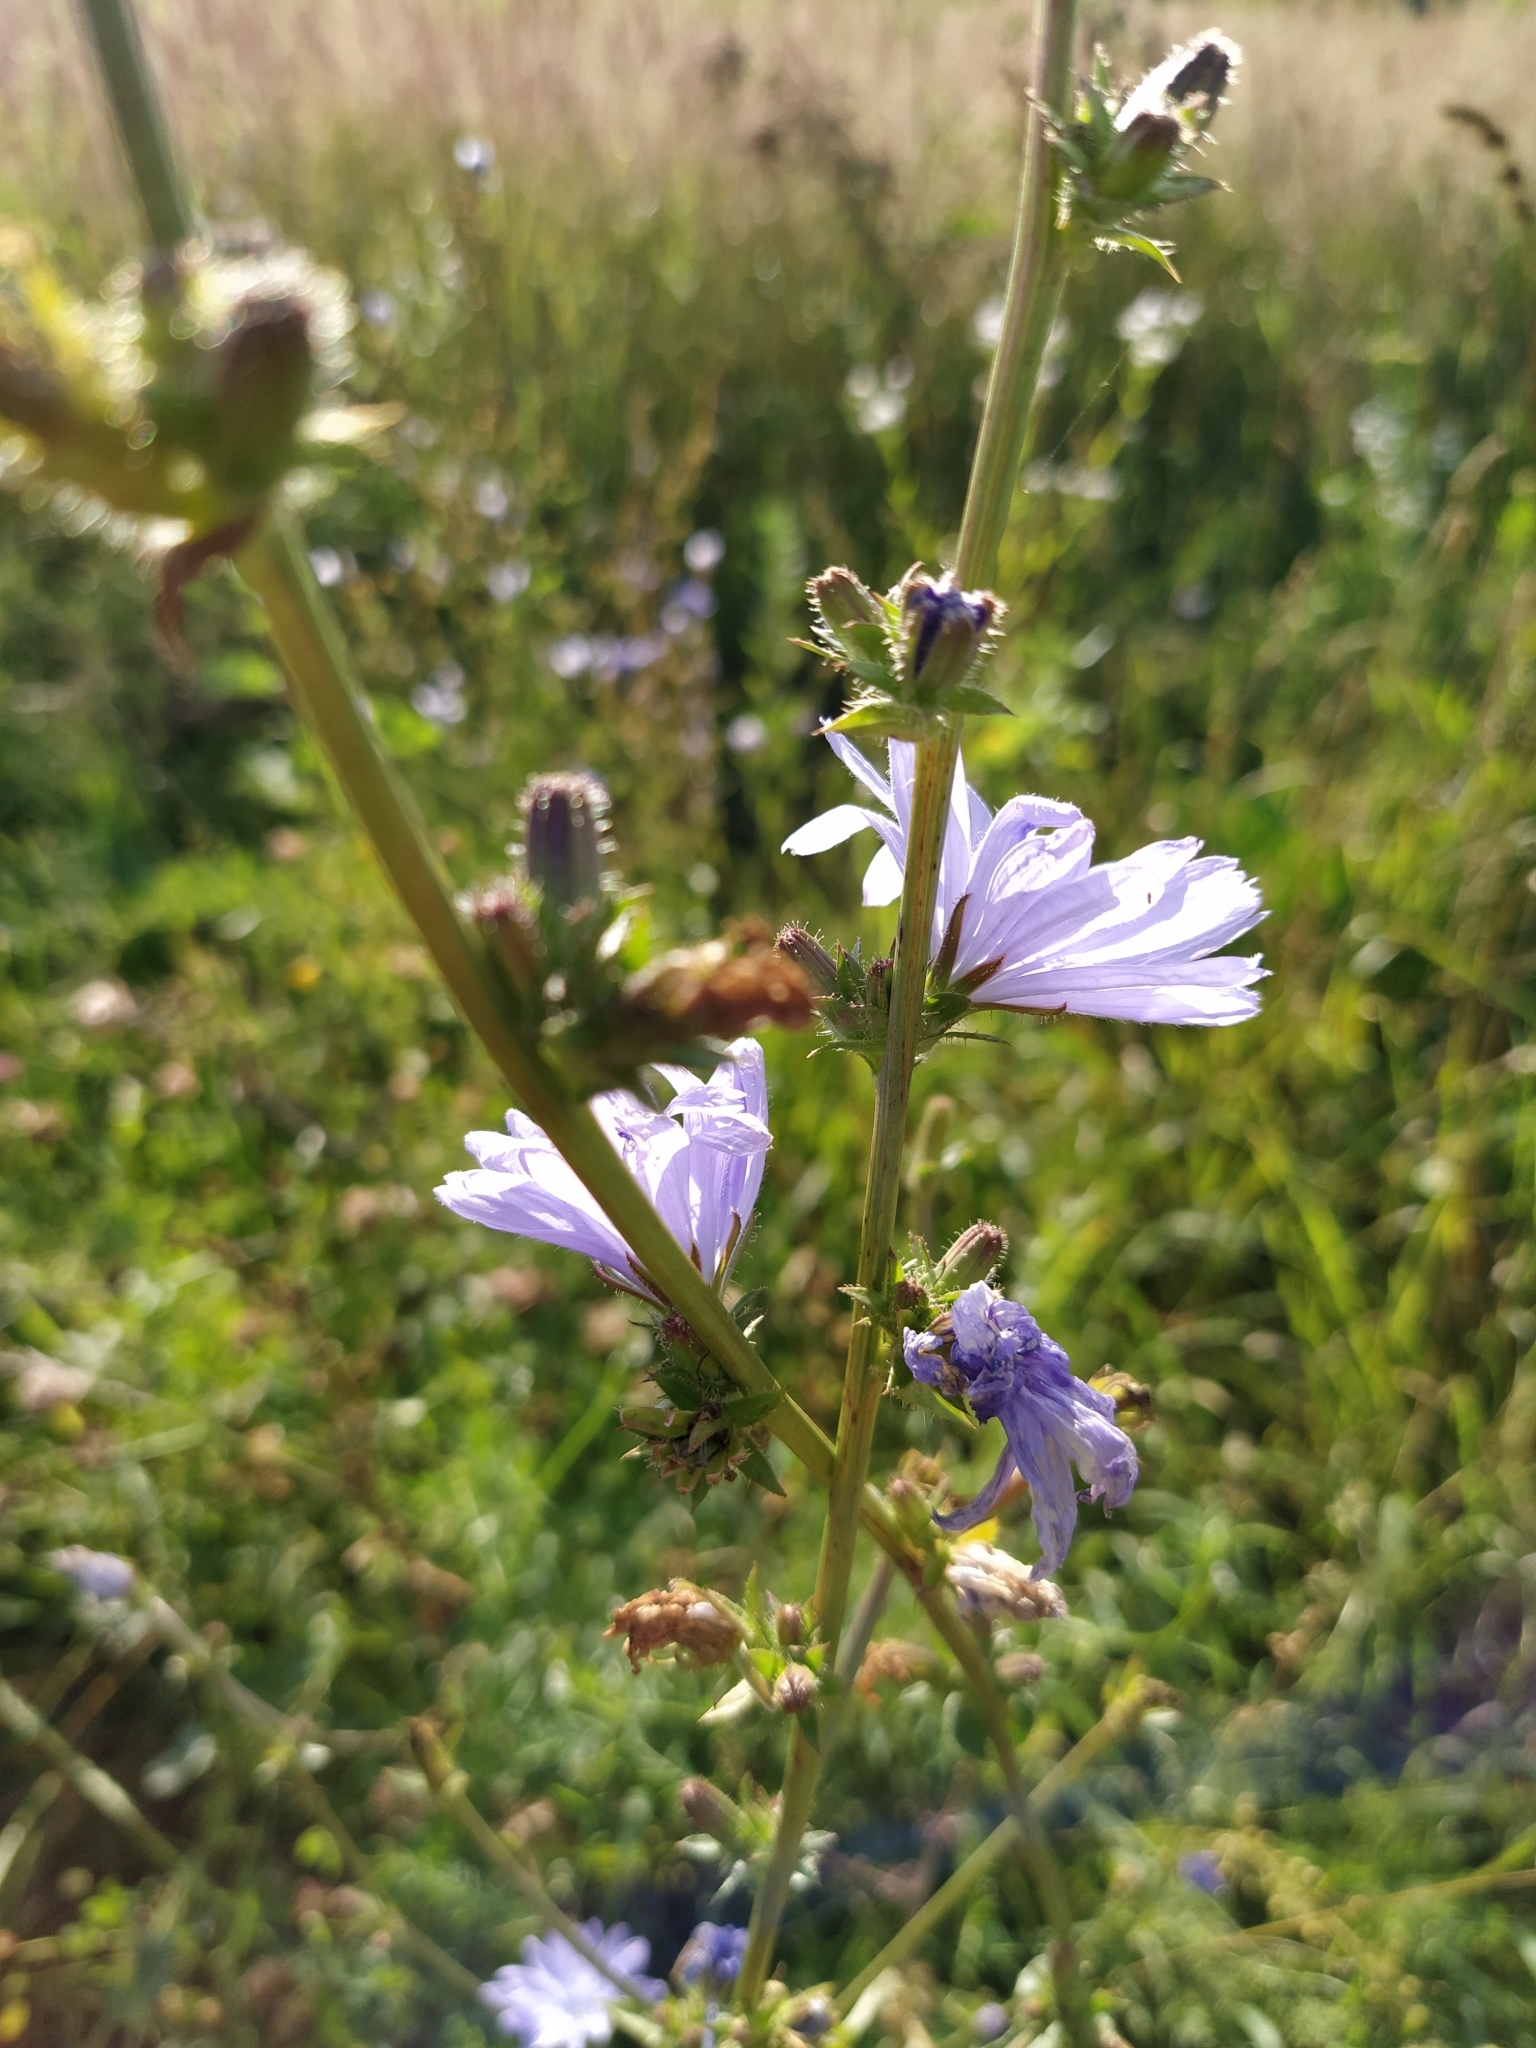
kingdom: Plantae
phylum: Tracheophyta
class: Magnoliopsida
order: Asterales
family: Asteraceae
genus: Cichorium
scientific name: Cichorium intybus
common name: Chicory
